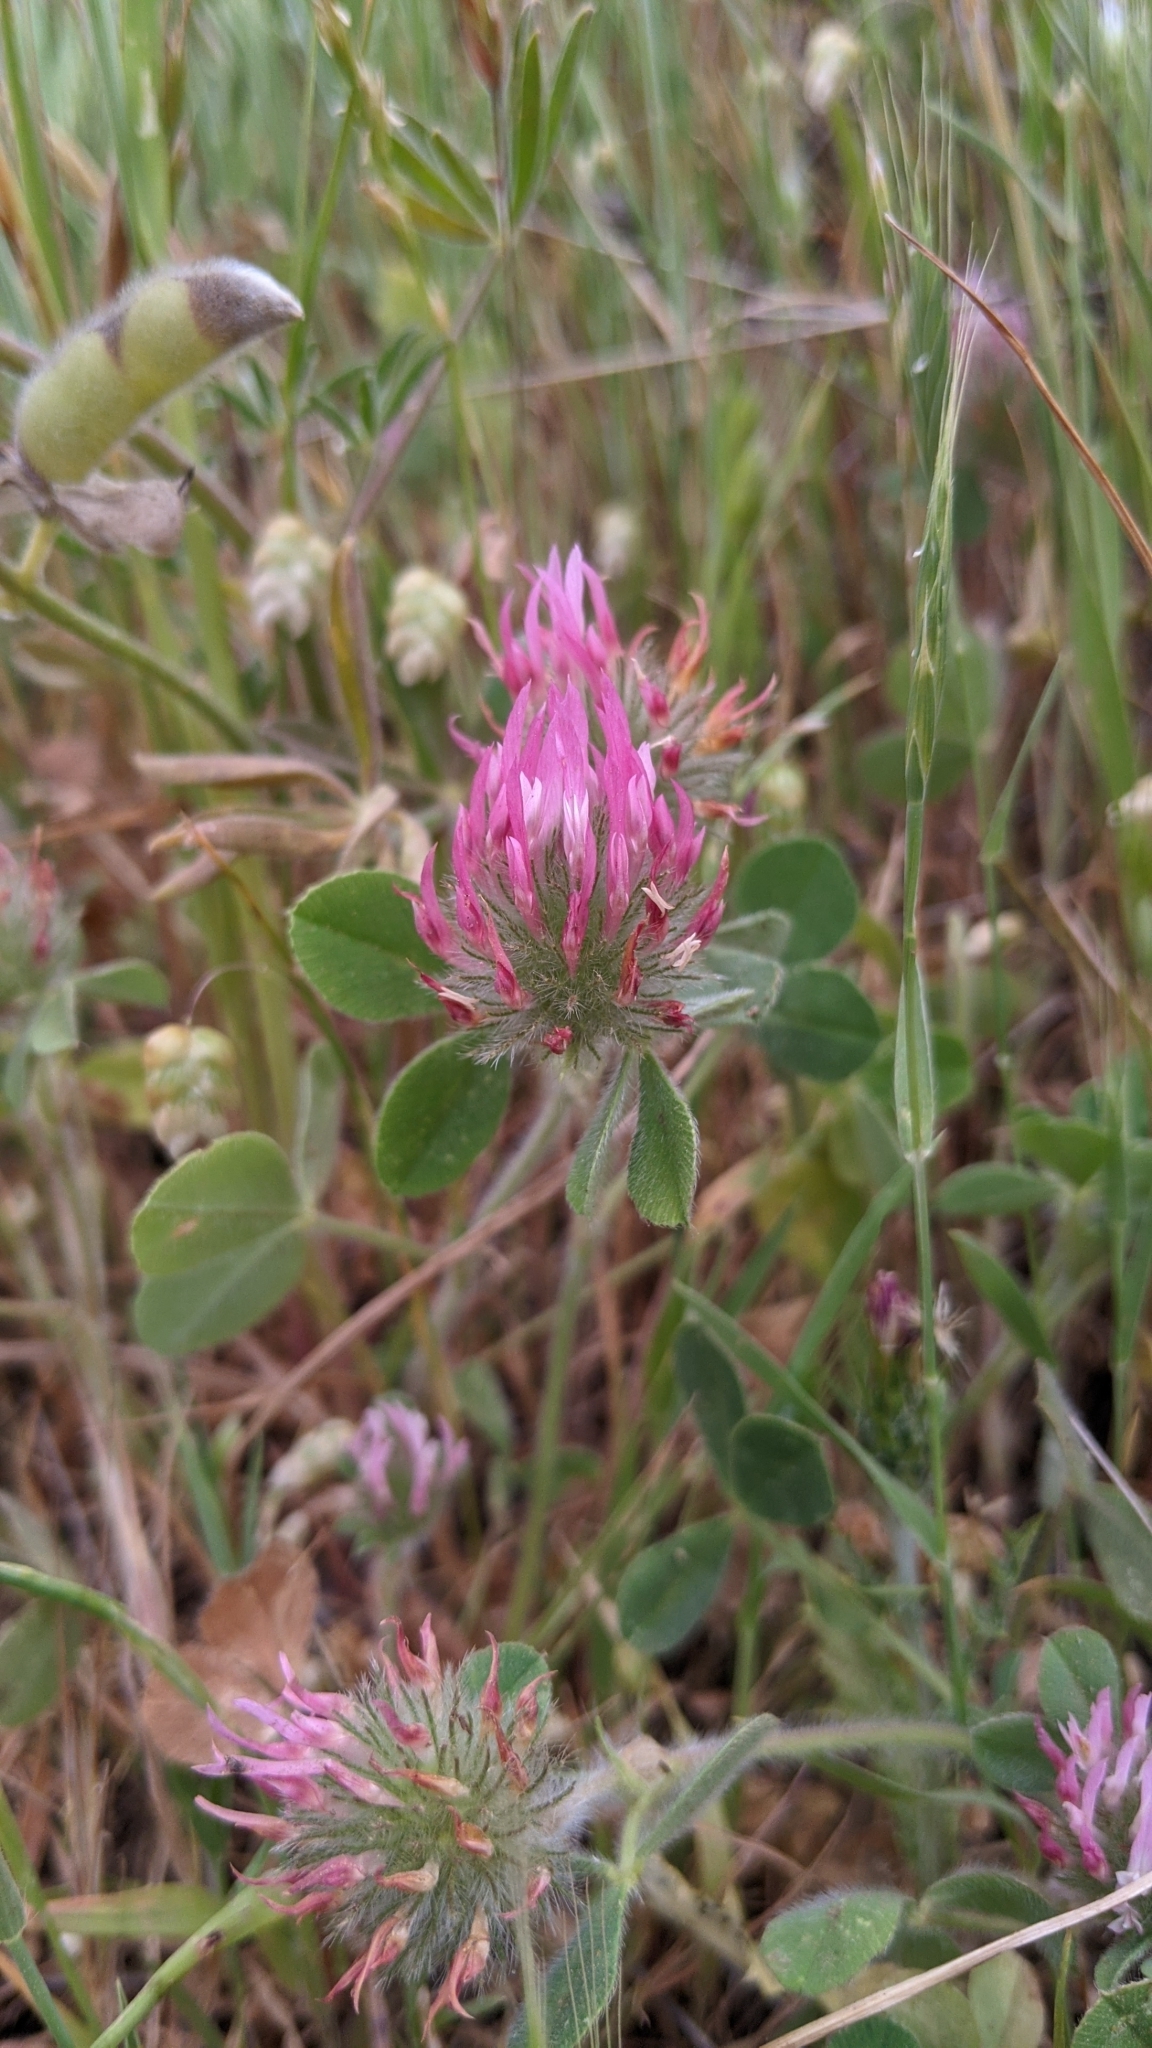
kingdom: Plantae
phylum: Tracheophyta
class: Magnoliopsida
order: Fabales
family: Fabaceae
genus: Trifolium
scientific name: Trifolium hirtum
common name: Rose clover
